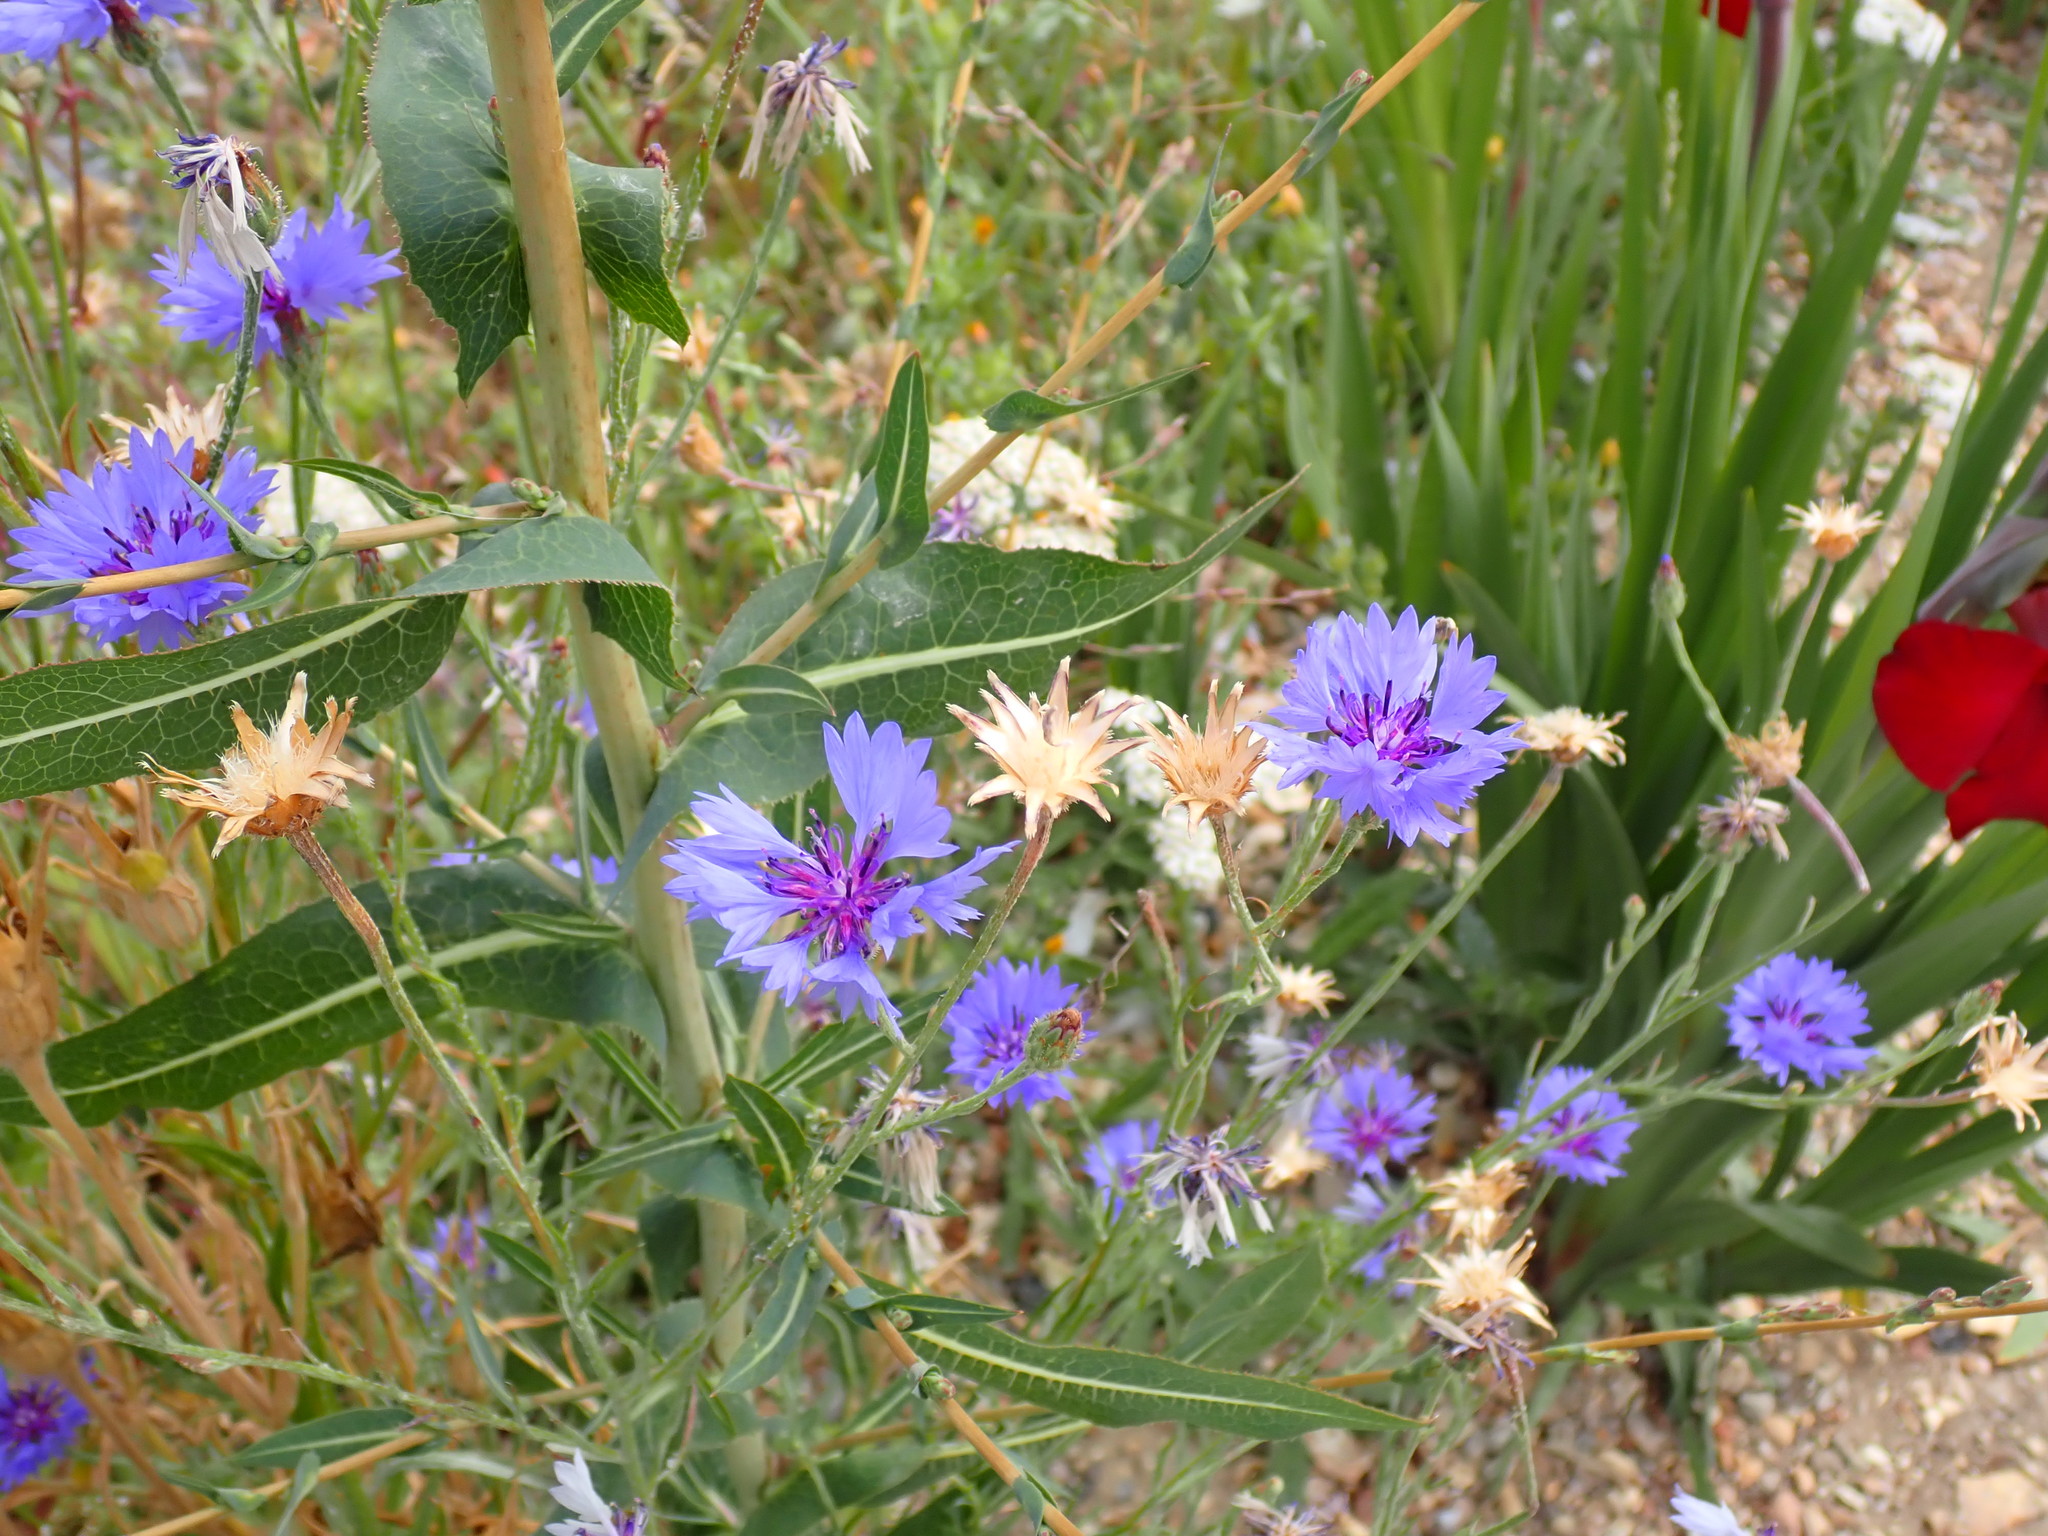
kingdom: Plantae
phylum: Tracheophyta
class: Magnoliopsida
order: Asterales
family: Asteraceae
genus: Centaurea
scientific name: Centaurea cyanus
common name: Cornflower
